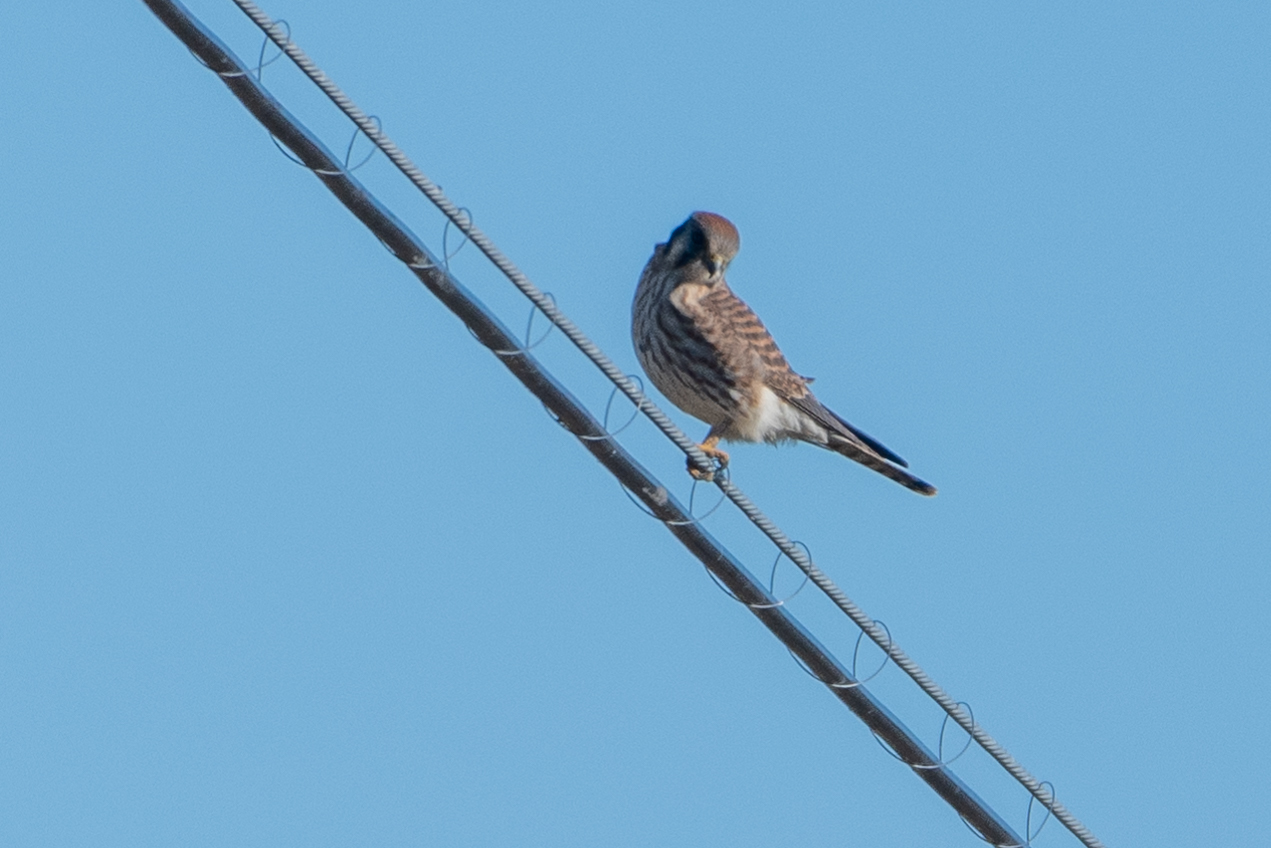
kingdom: Animalia
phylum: Chordata
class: Aves
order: Falconiformes
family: Falconidae
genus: Falco
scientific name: Falco sparverius
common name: American kestrel
